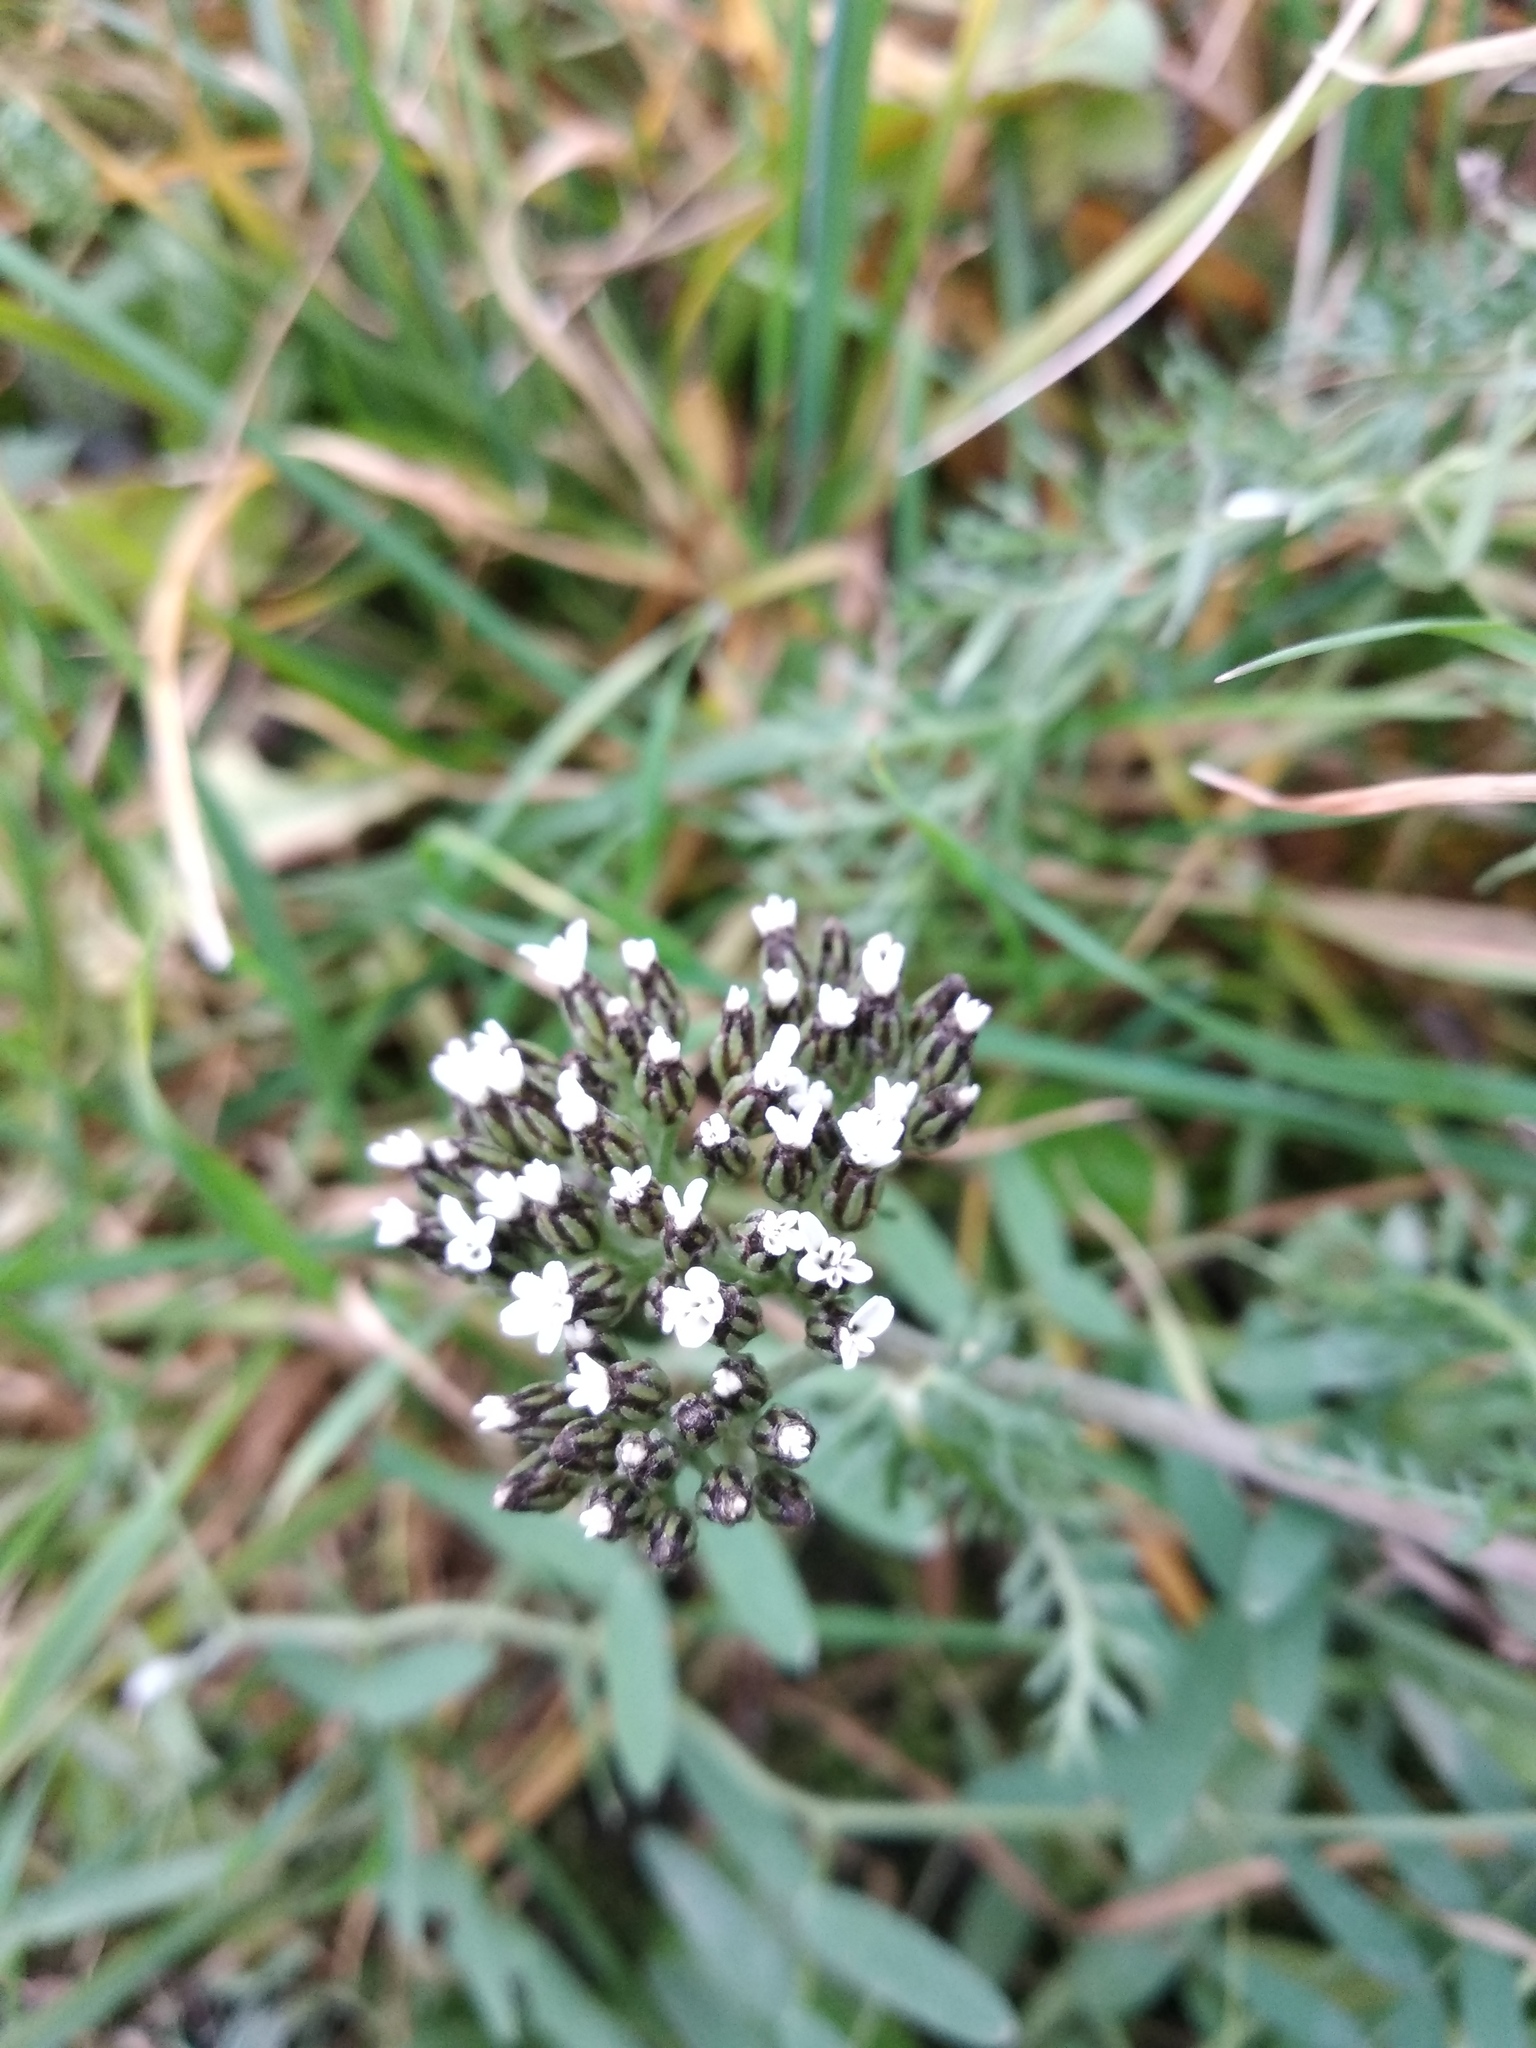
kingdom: Plantae
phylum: Tracheophyta
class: Magnoliopsida
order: Asterales
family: Asteraceae
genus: Achillea
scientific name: Achillea millefolium
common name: Yarrow
